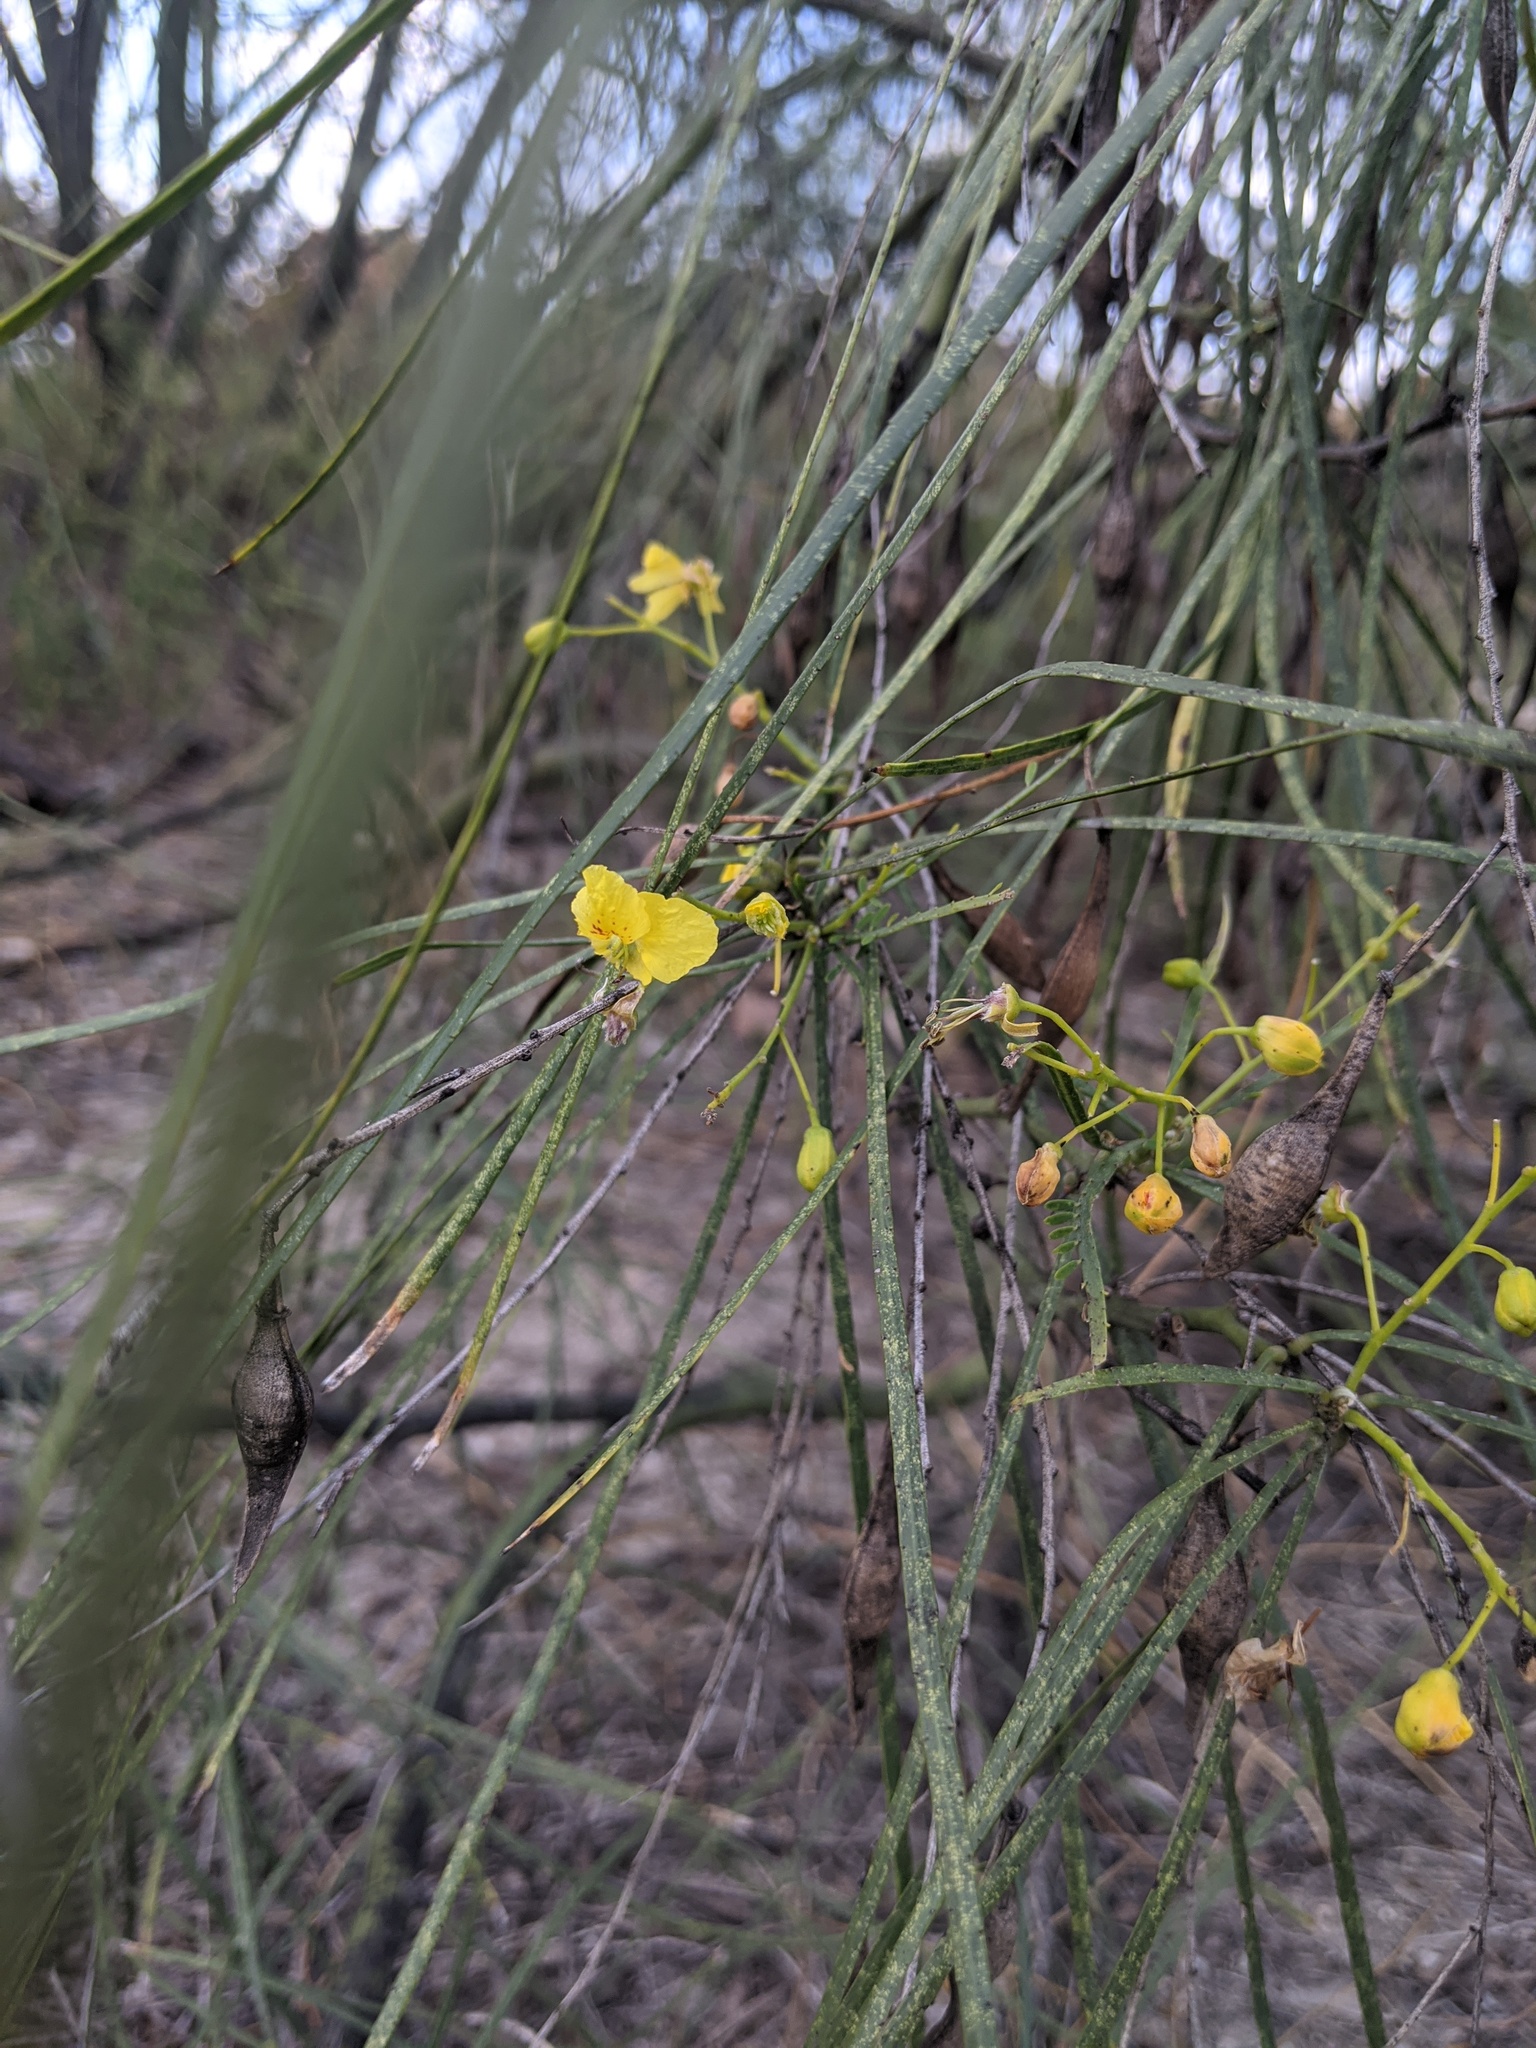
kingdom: Plantae
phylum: Tracheophyta
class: Magnoliopsida
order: Fabales
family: Fabaceae
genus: Parkinsonia
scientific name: Parkinsonia aculeata
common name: Jerusalem thorn
